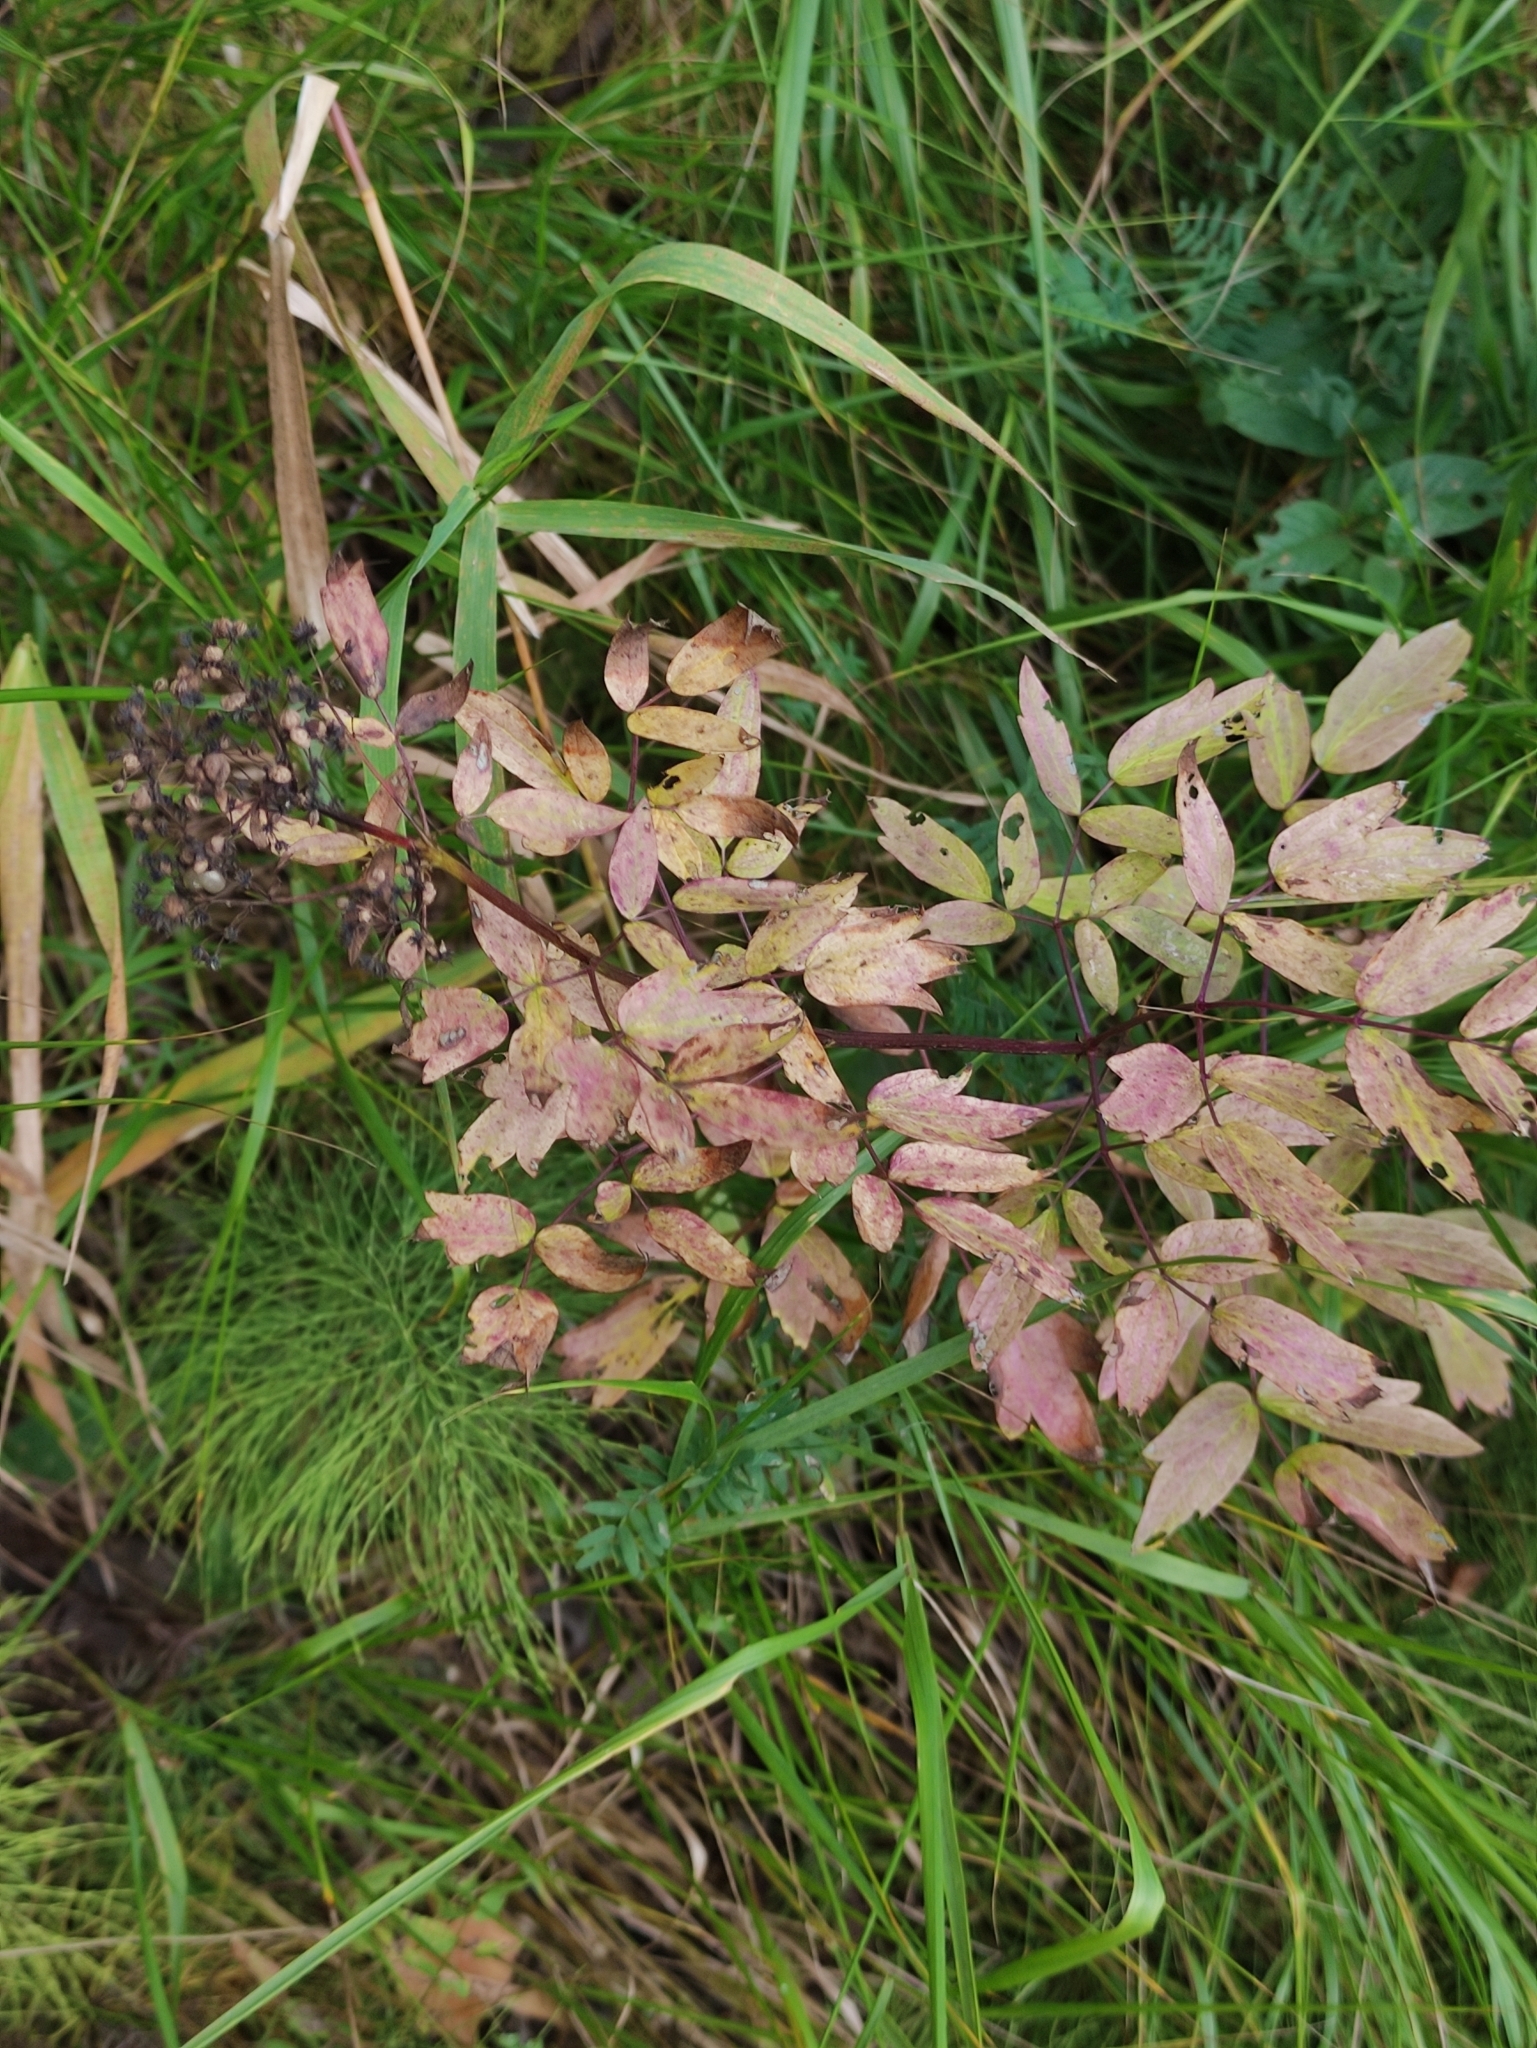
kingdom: Plantae
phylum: Tracheophyta
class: Magnoliopsida
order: Ranunculales
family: Ranunculaceae
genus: Thalictrum
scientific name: Thalictrum simplex
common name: Small meadow-rue
